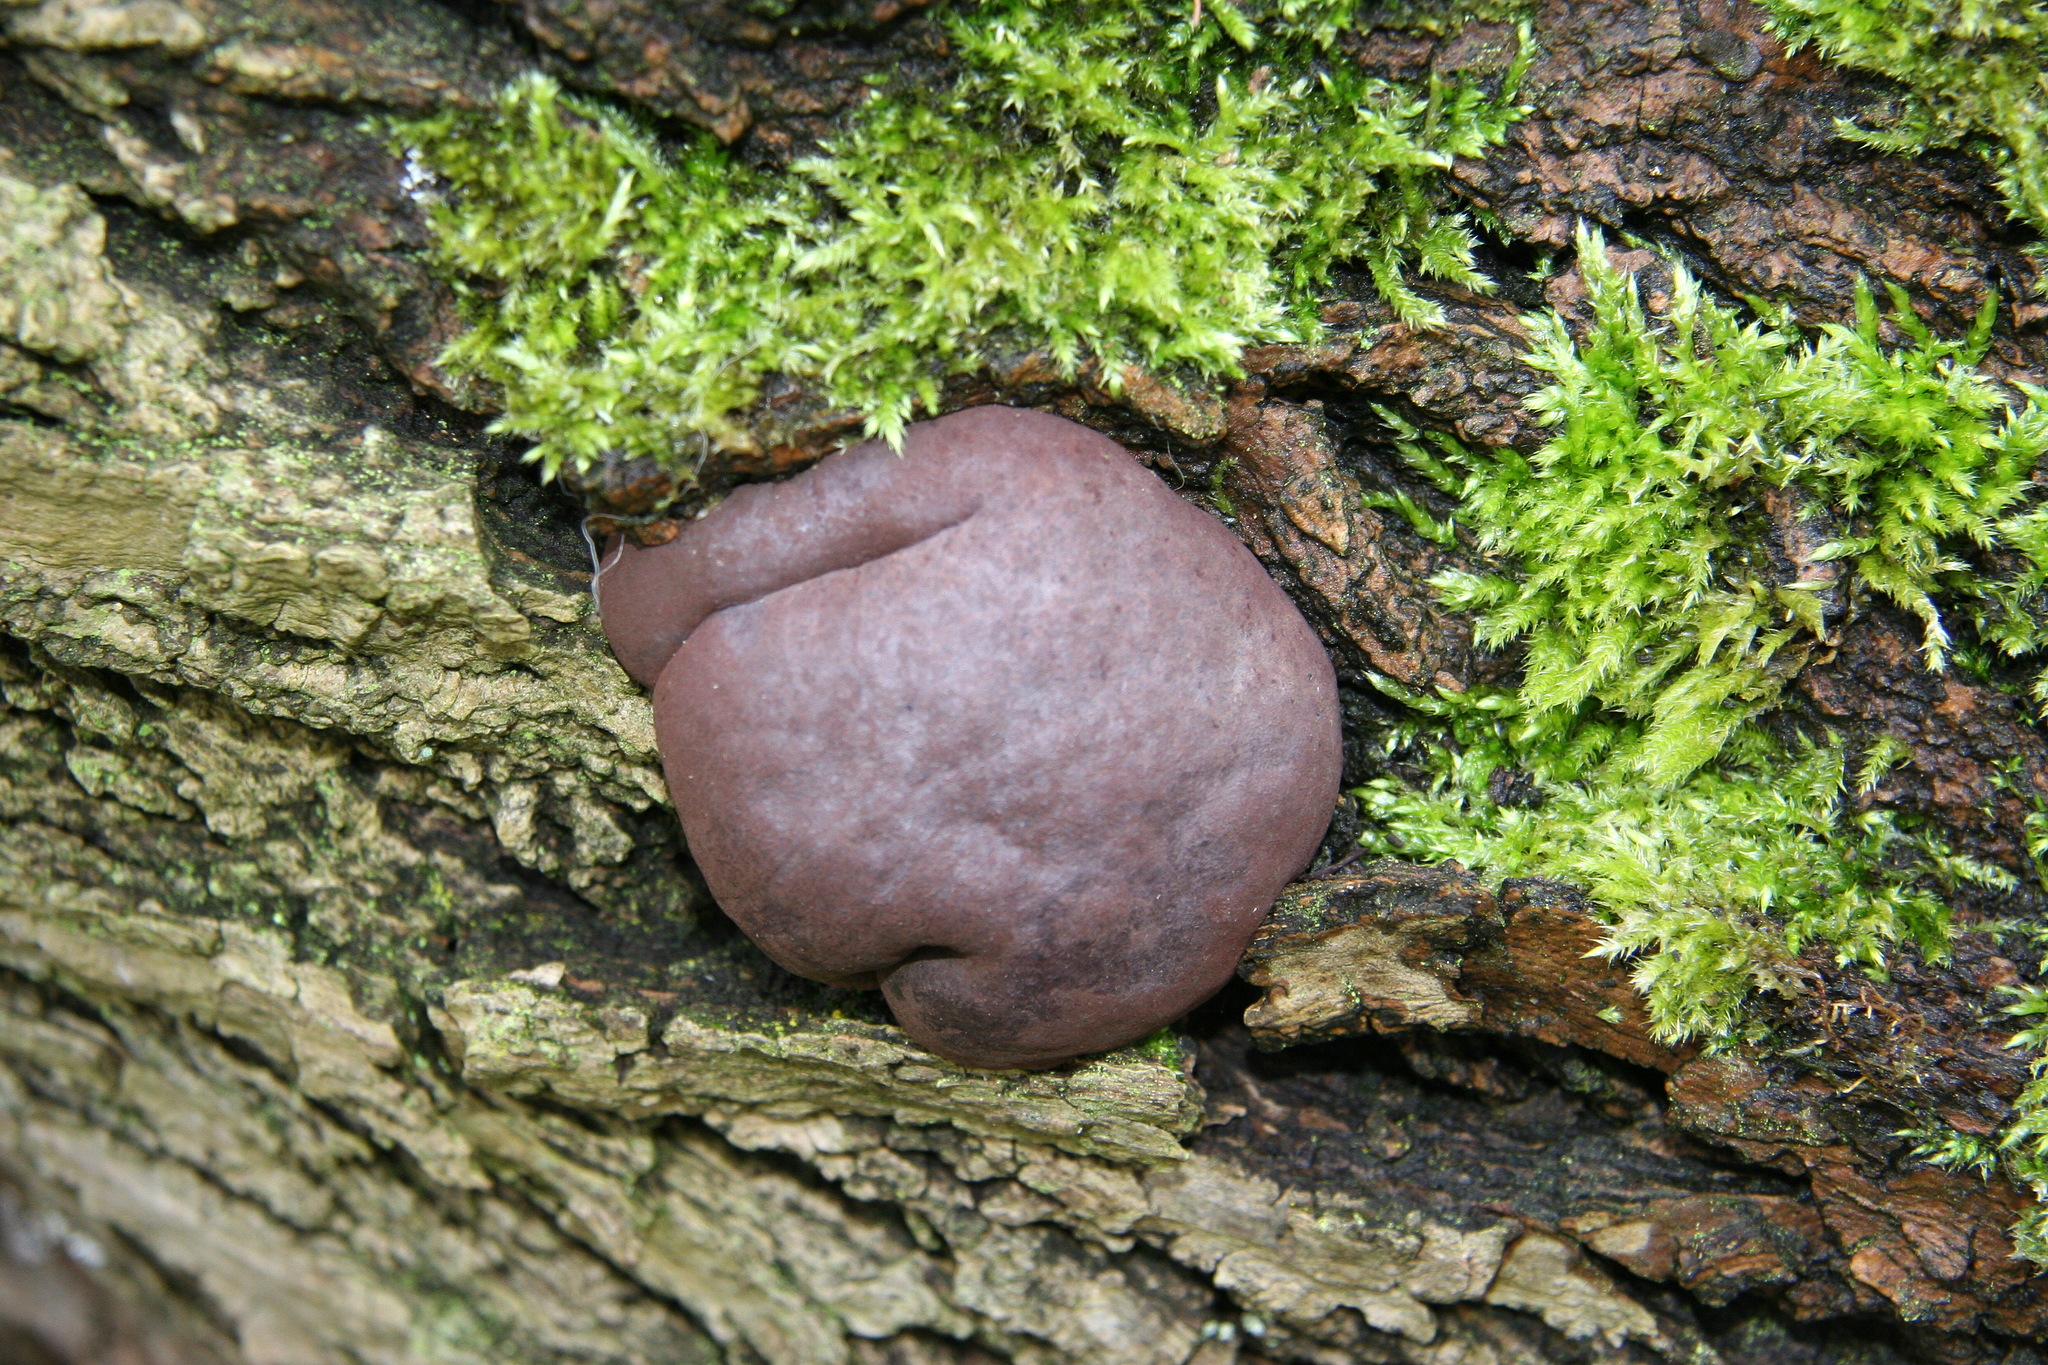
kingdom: Fungi
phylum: Ascomycota
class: Sordariomycetes
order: Xylariales
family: Hypoxylaceae
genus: Daldinia
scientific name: Daldinia concentrica
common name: Cramp balls
